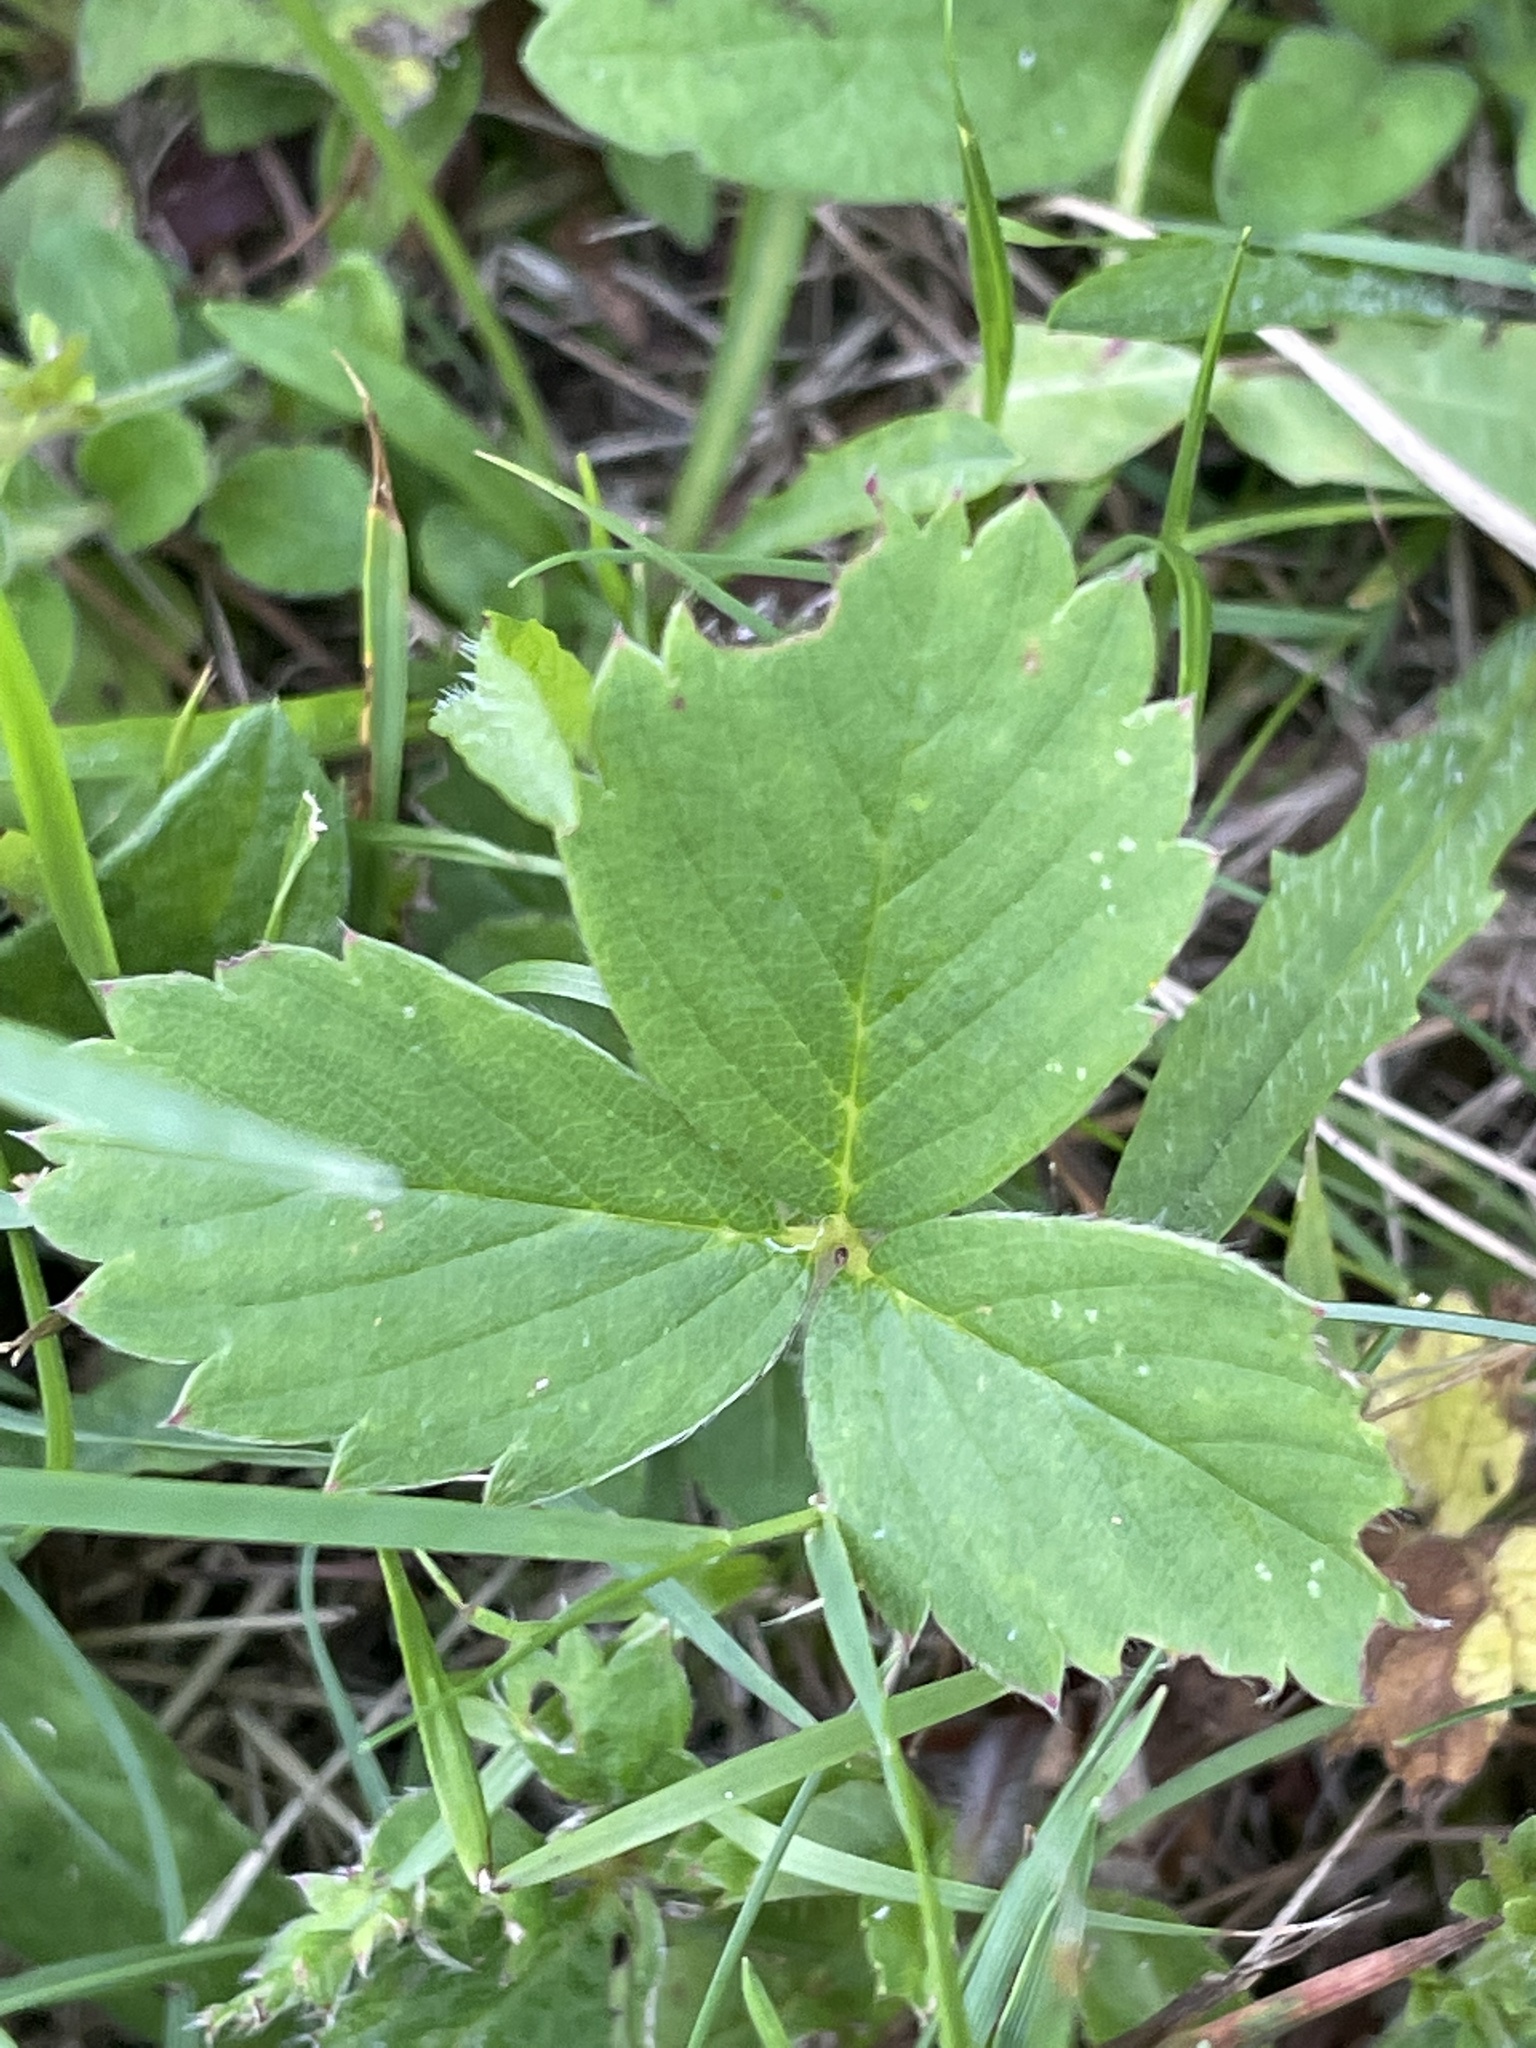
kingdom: Plantae
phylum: Tracheophyta
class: Magnoliopsida
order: Rosales
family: Rosaceae
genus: Fragaria
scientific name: Fragaria virginiana
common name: Thickleaved wild strawberry
